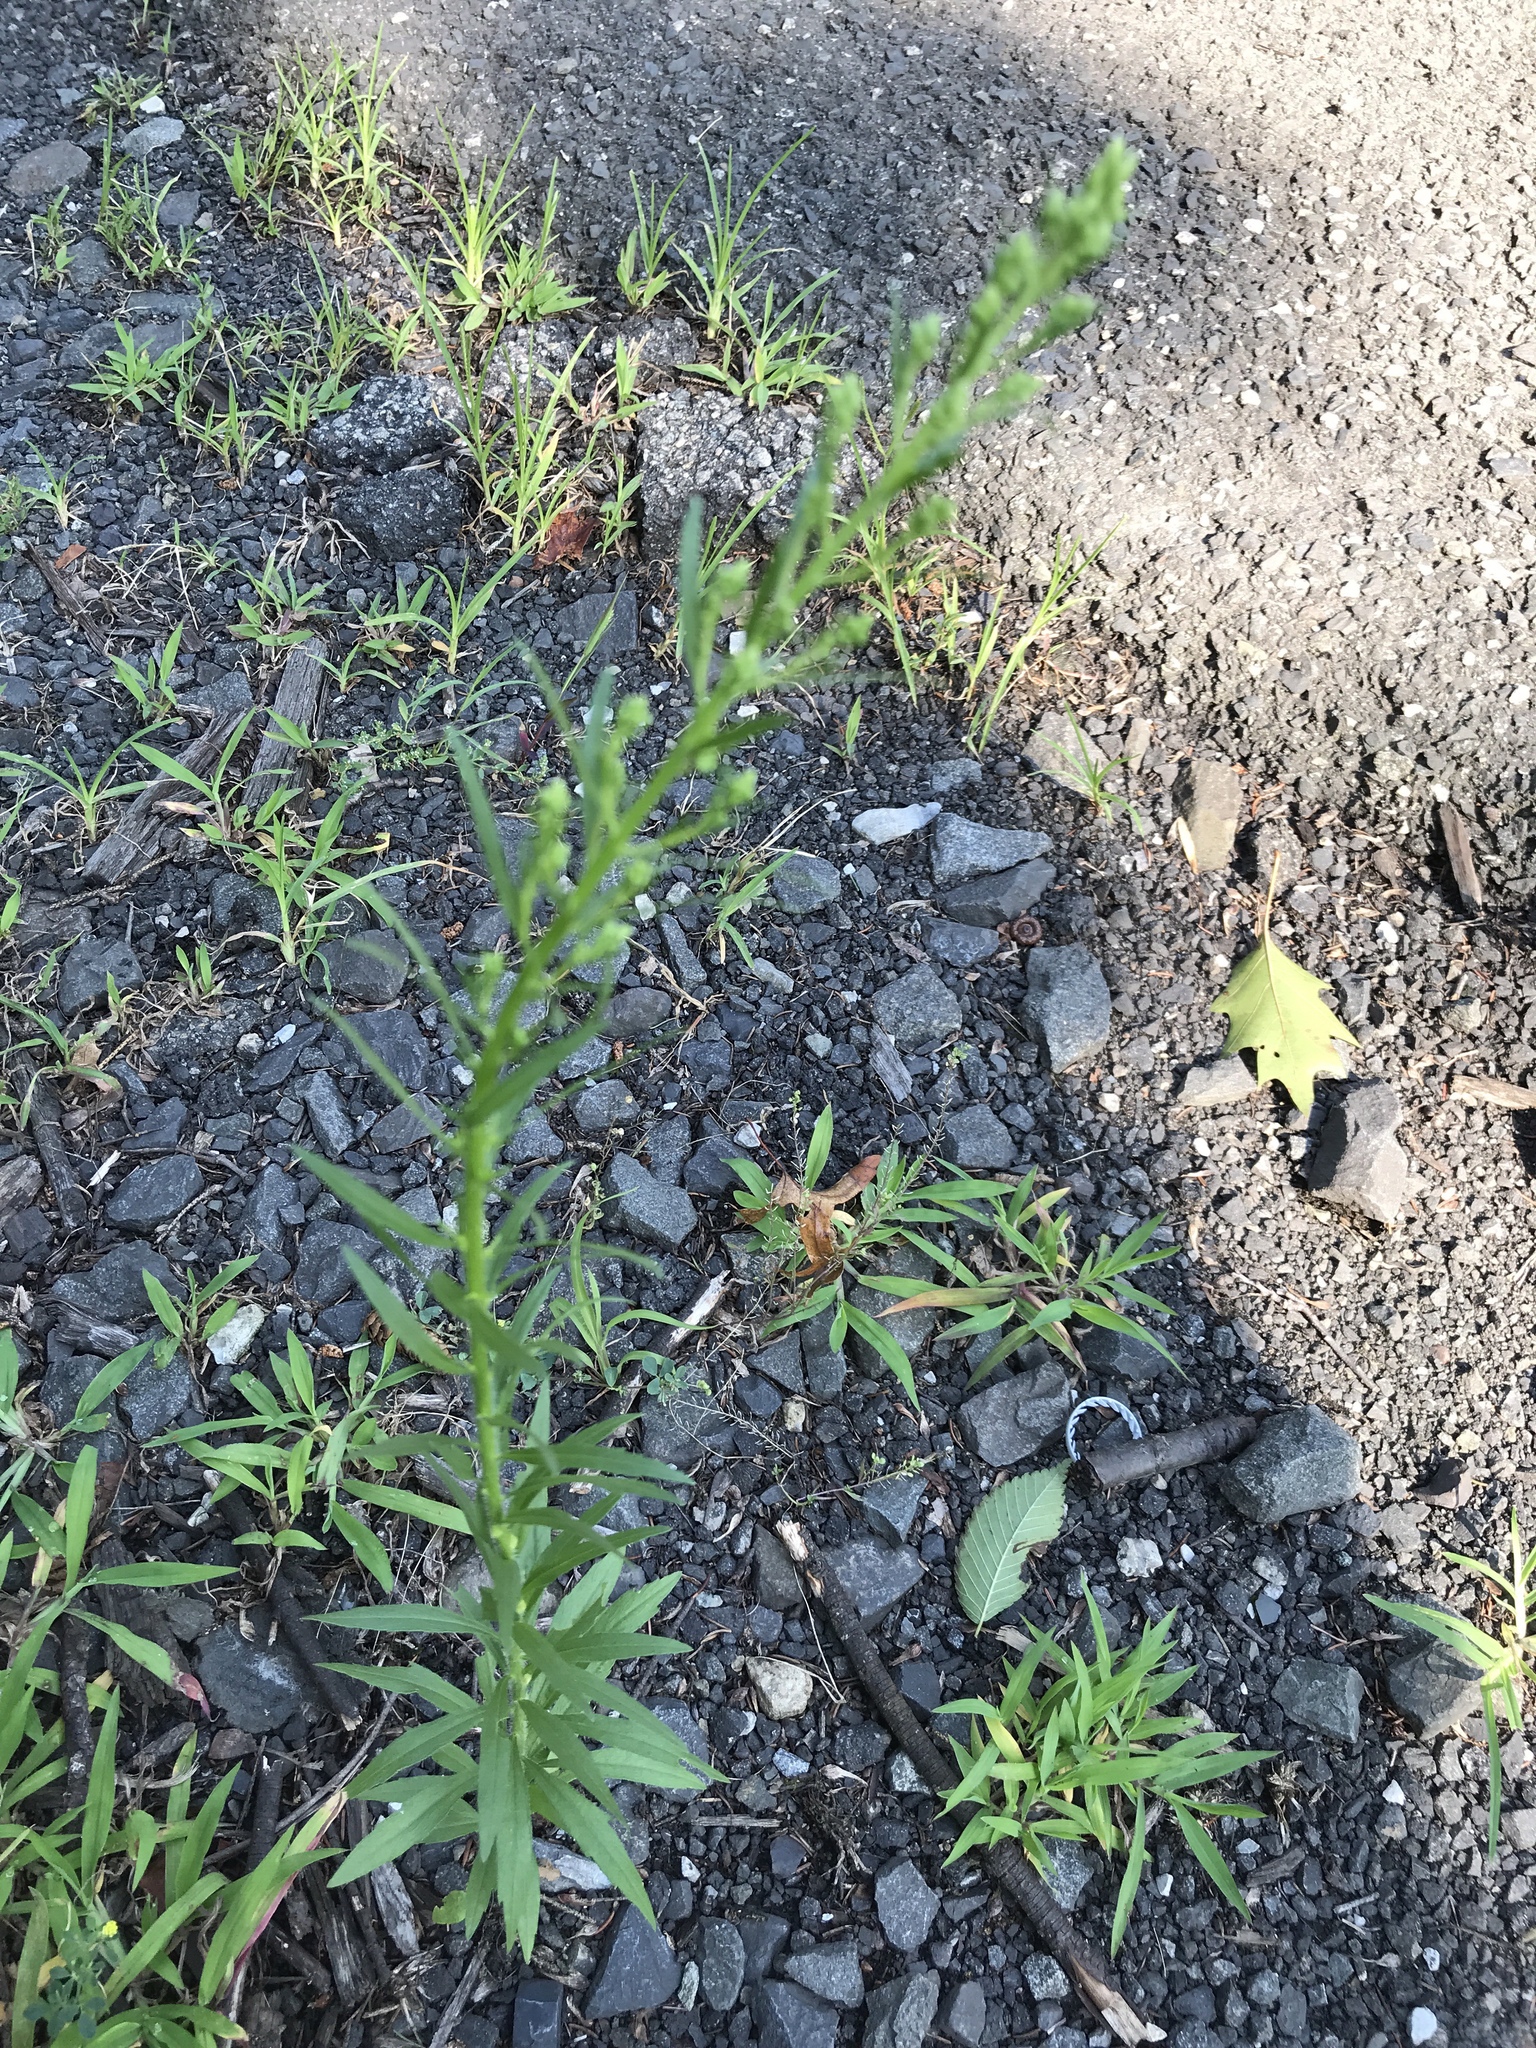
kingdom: Plantae
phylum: Tracheophyta
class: Magnoliopsida
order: Asterales
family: Asteraceae
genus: Erigeron
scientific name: Erigeron canadensis
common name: Canadian fleabane
